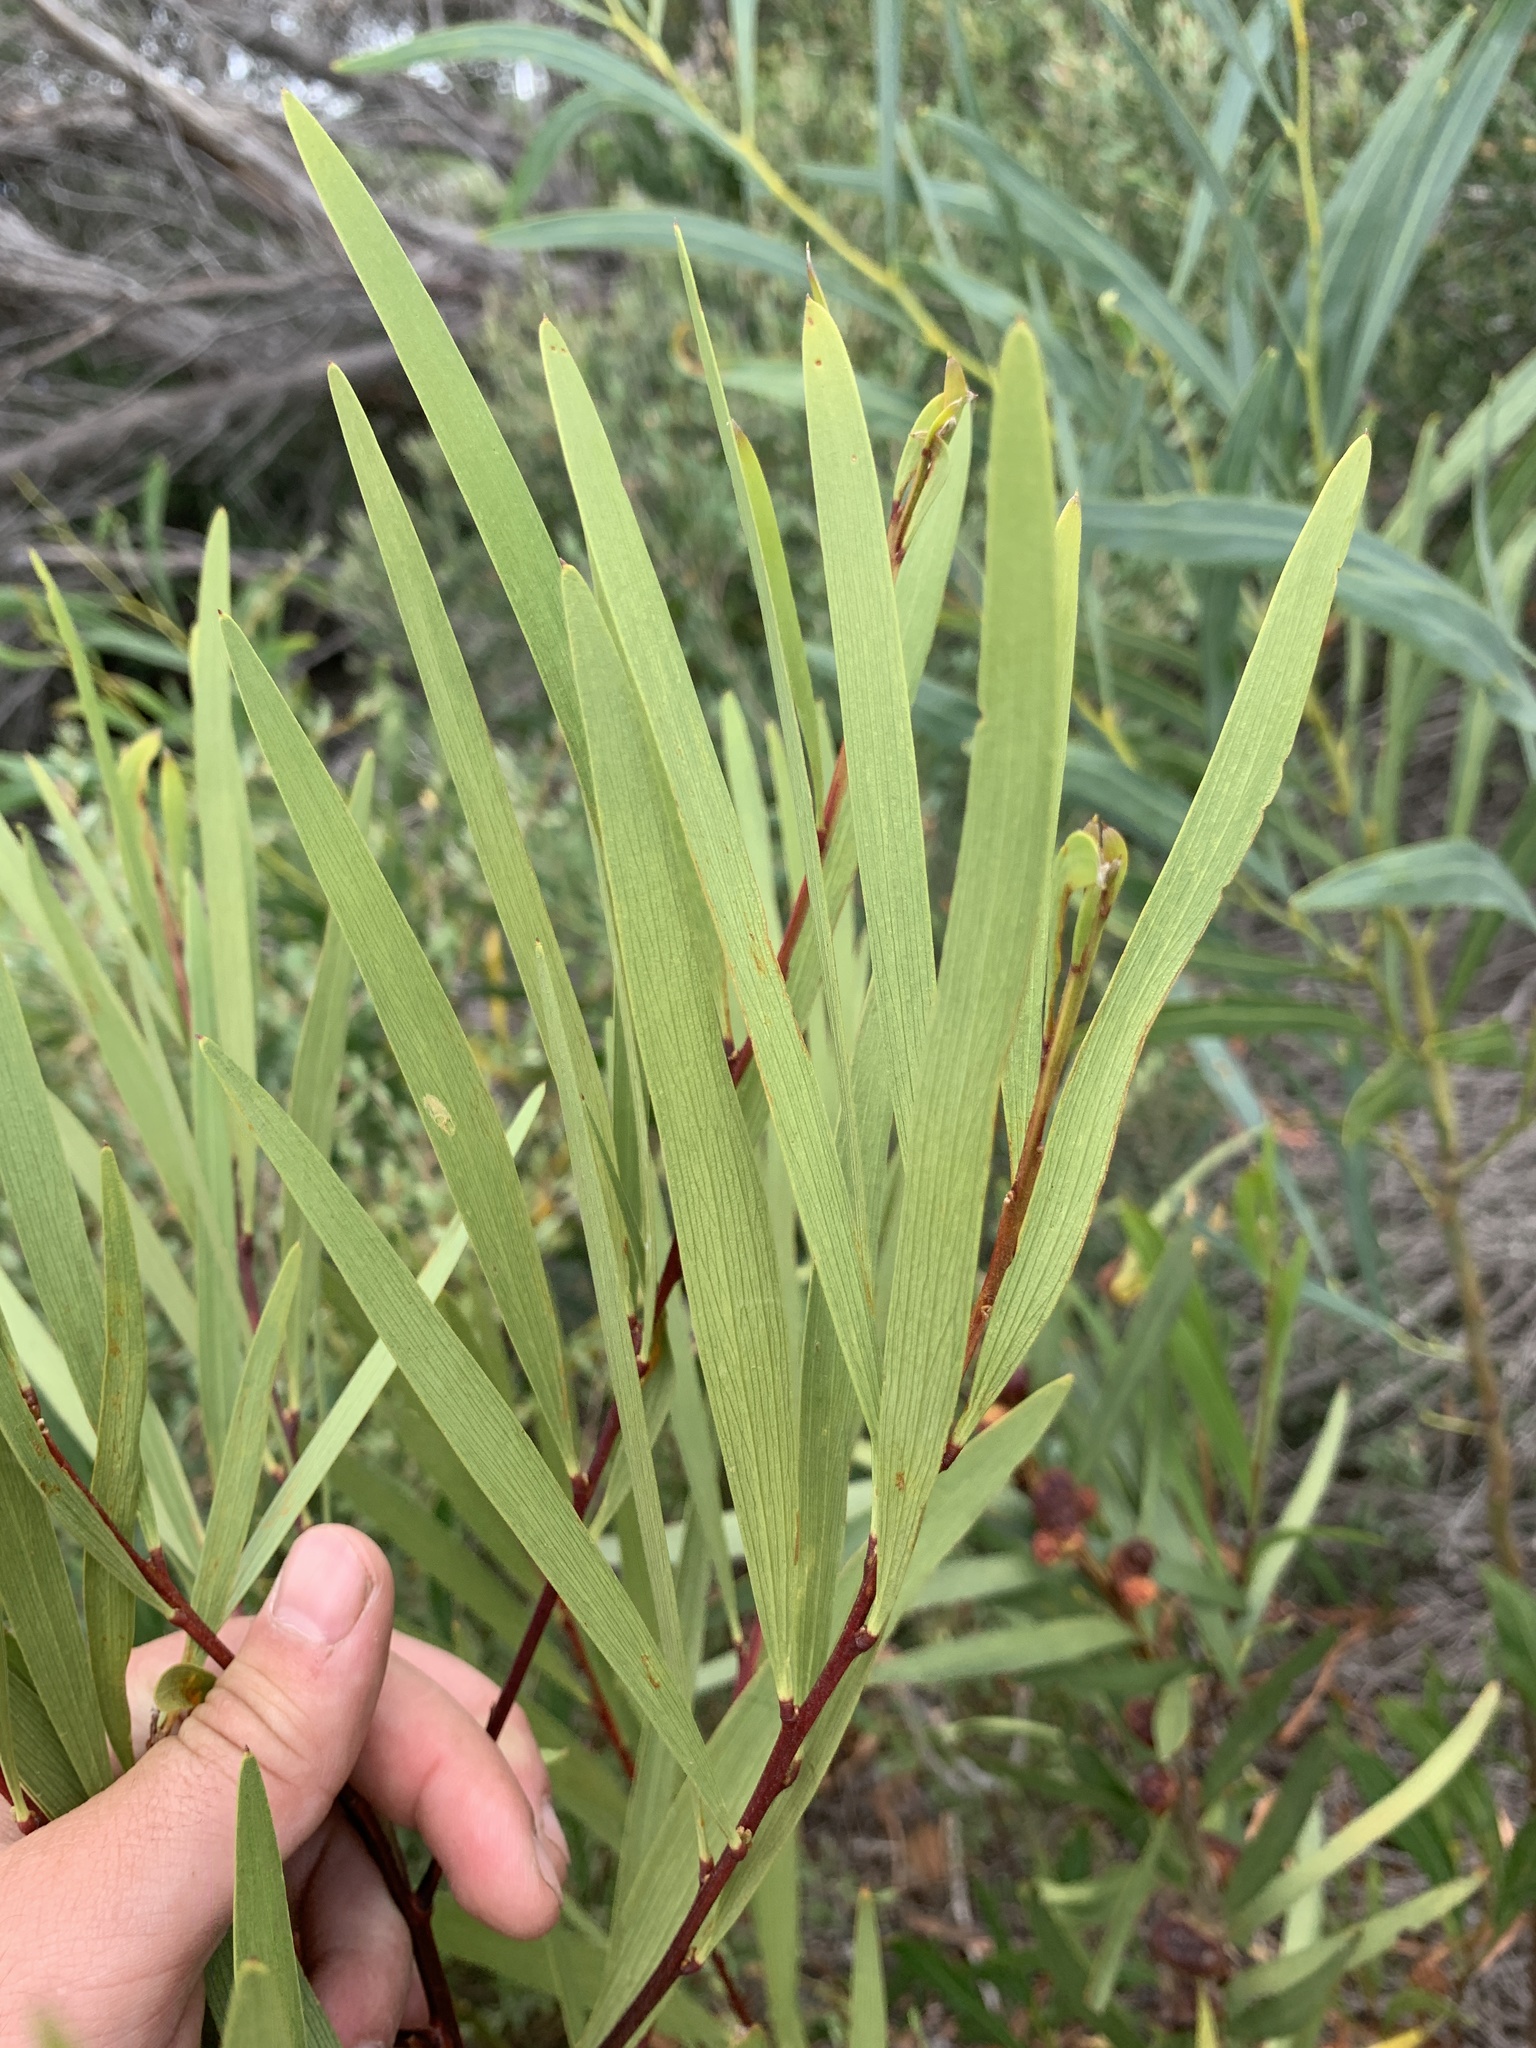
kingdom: Plantae
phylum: Tracheophyta
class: Magnoliopsida
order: Fabales
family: Fabaceae
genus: Acacia
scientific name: Acacia longifolia
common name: Sydney golden wattle
